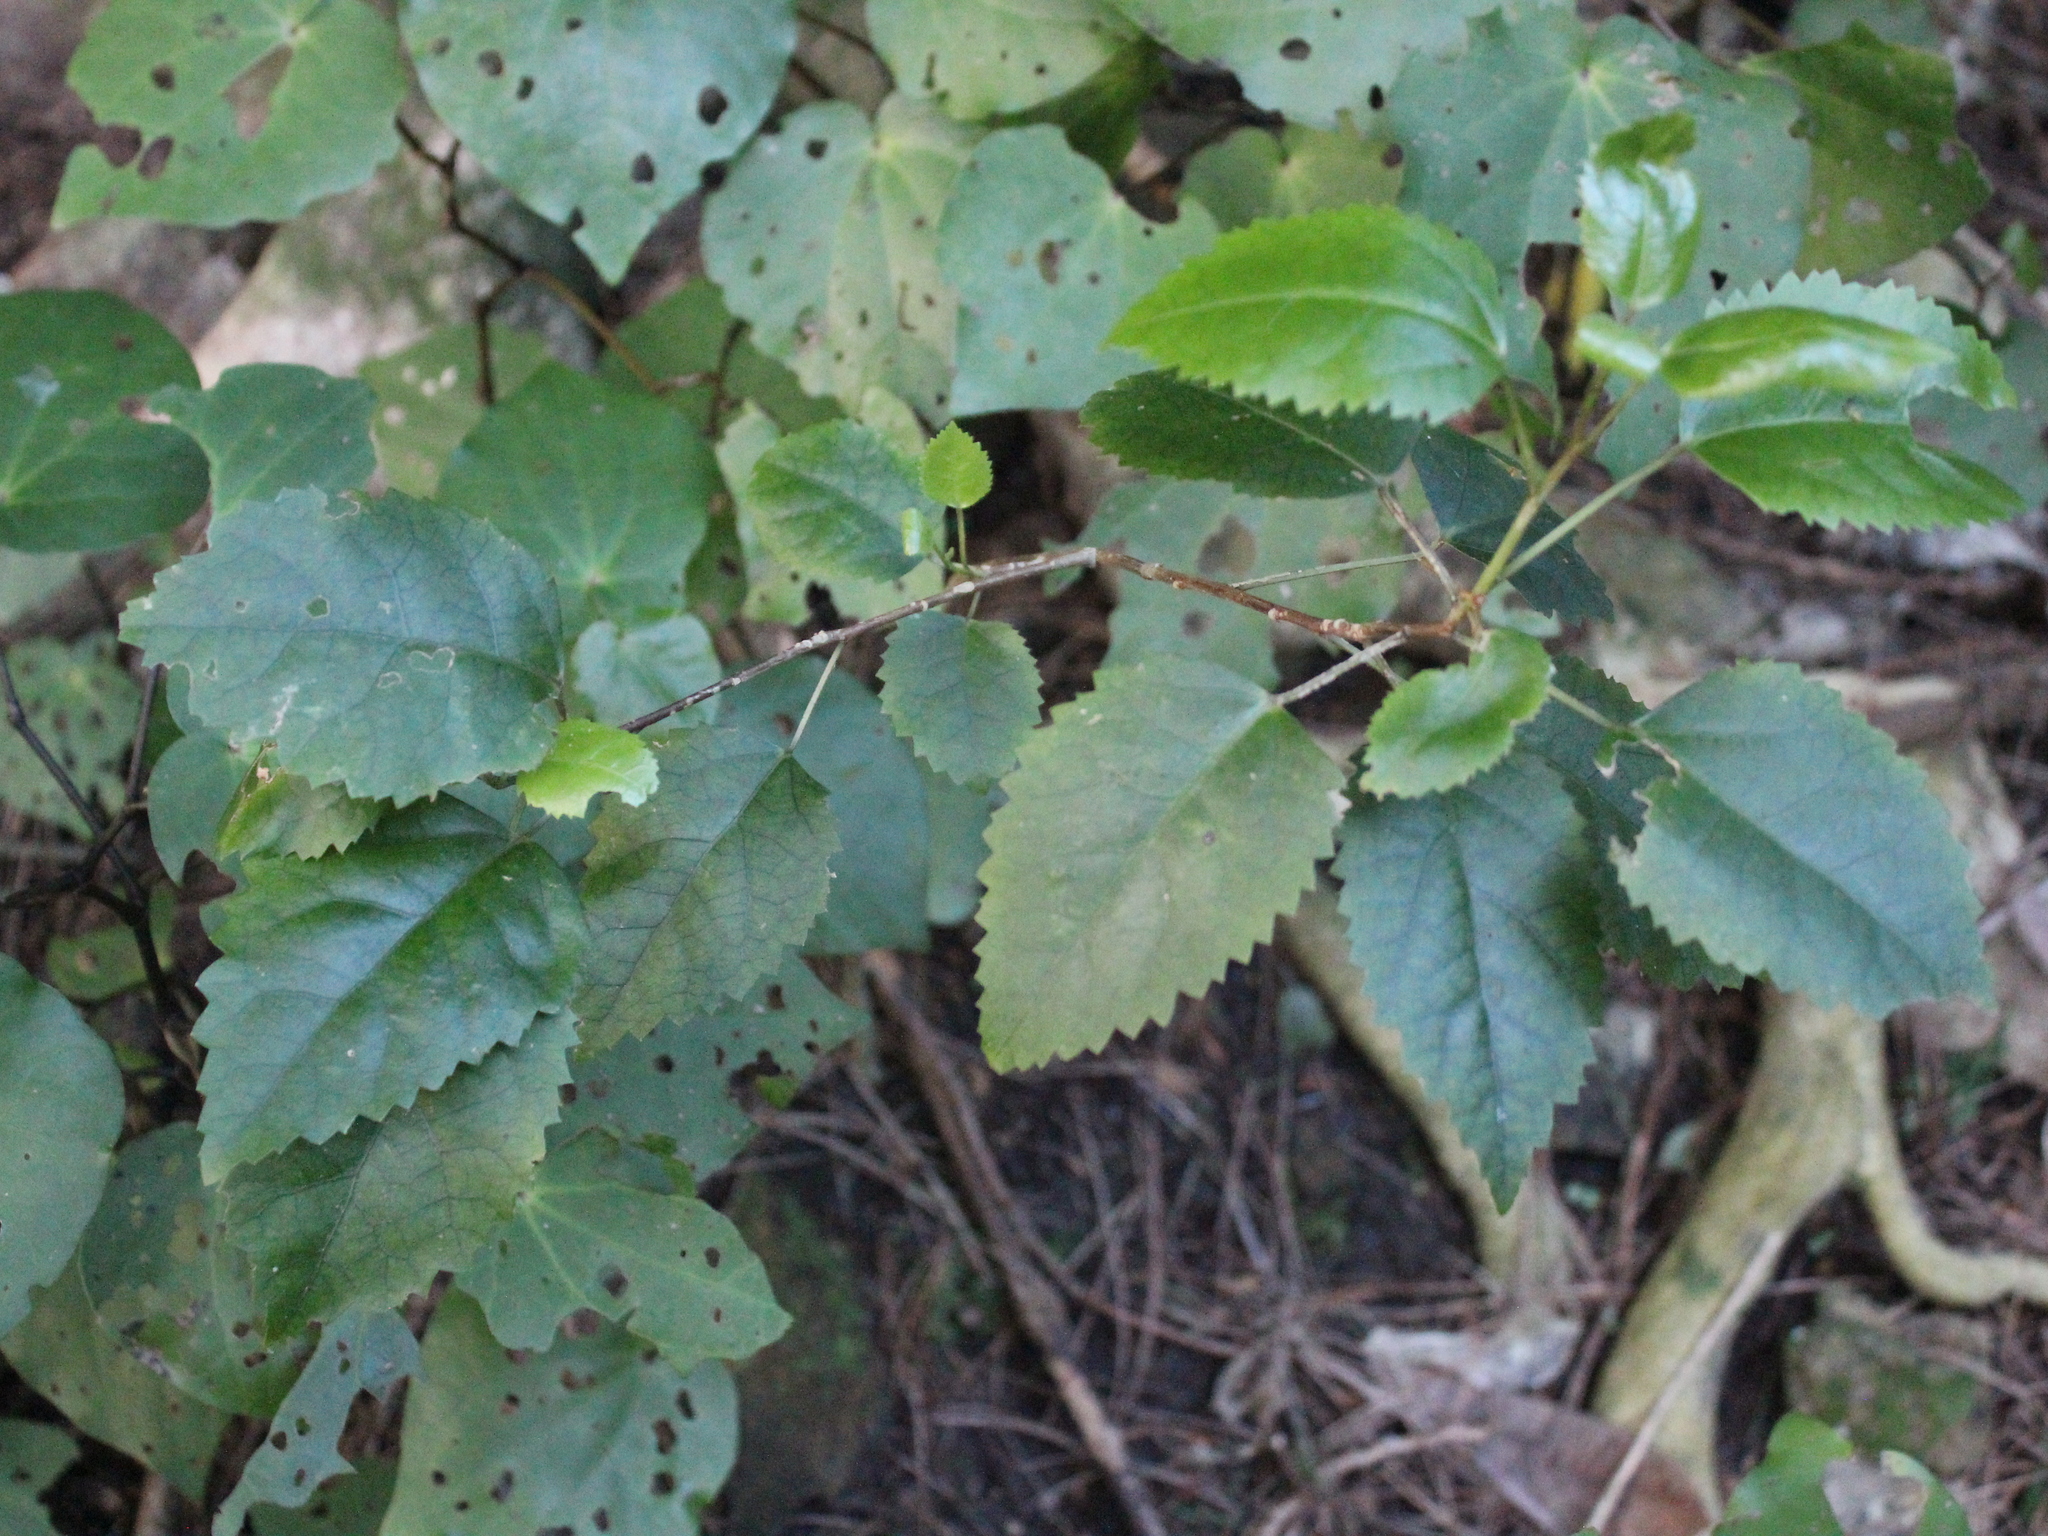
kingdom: Plantae
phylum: Tracheophyta
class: Magnoliopsida
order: Malvales
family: Malvaceae
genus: Hoheria
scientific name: Hoheria populnea
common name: Lacebark
